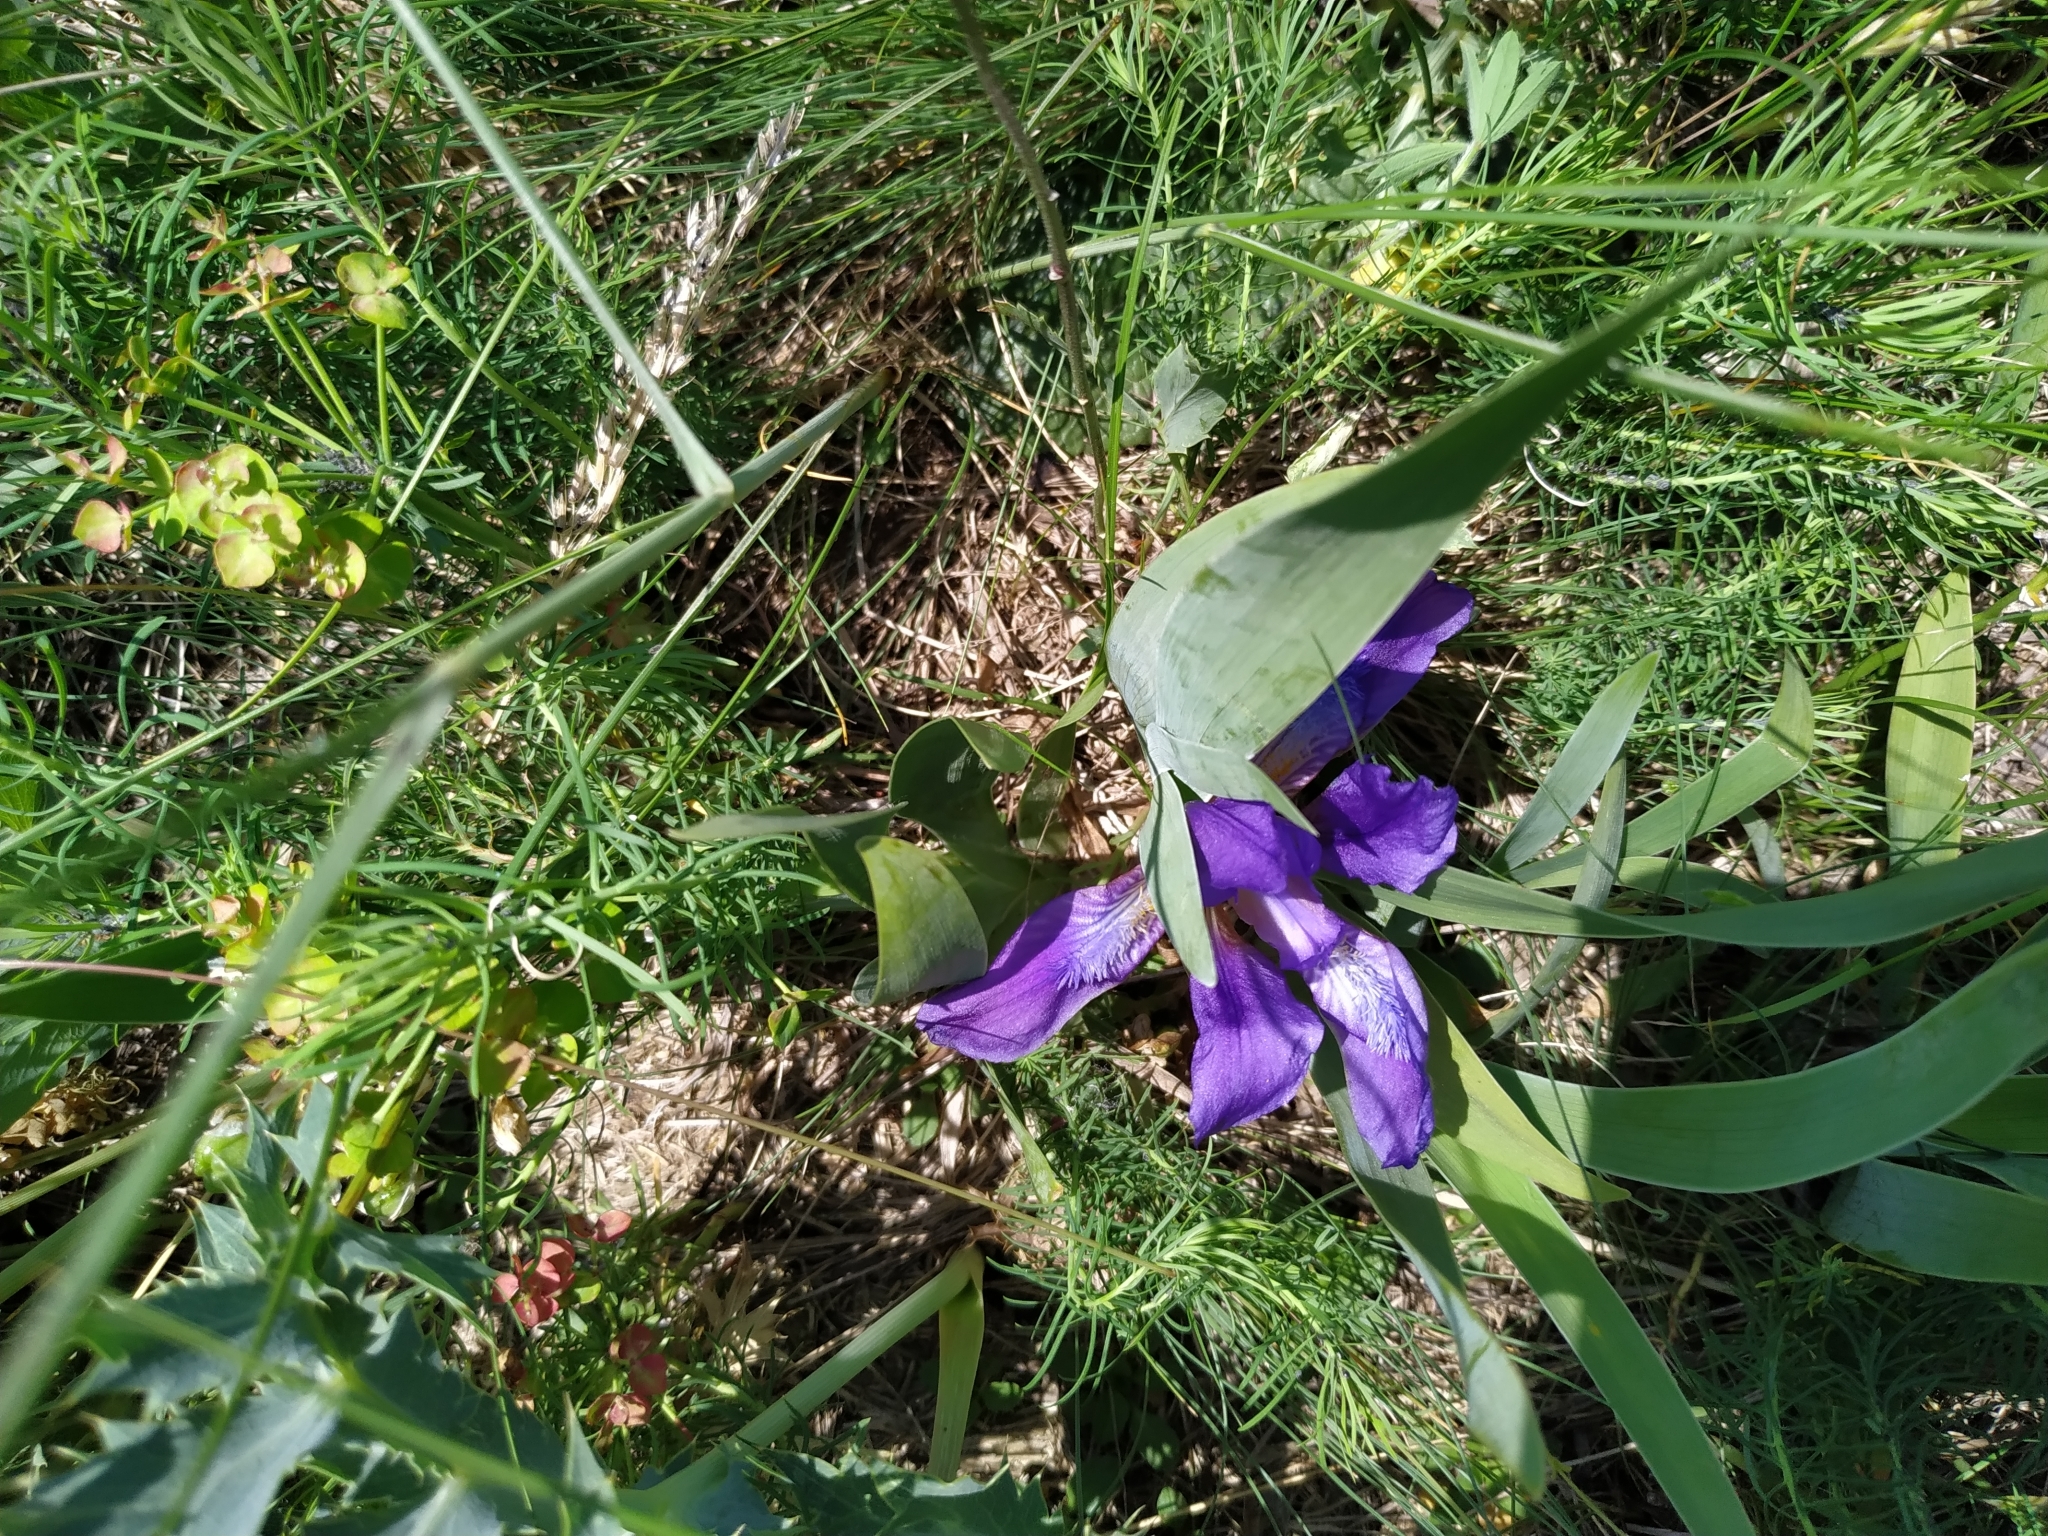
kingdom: Plantae
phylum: Tracheophyta
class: Liliopsida
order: Asparagales
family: Iridaceae
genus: Iris
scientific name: Iris pumila
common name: Dwarf iris
